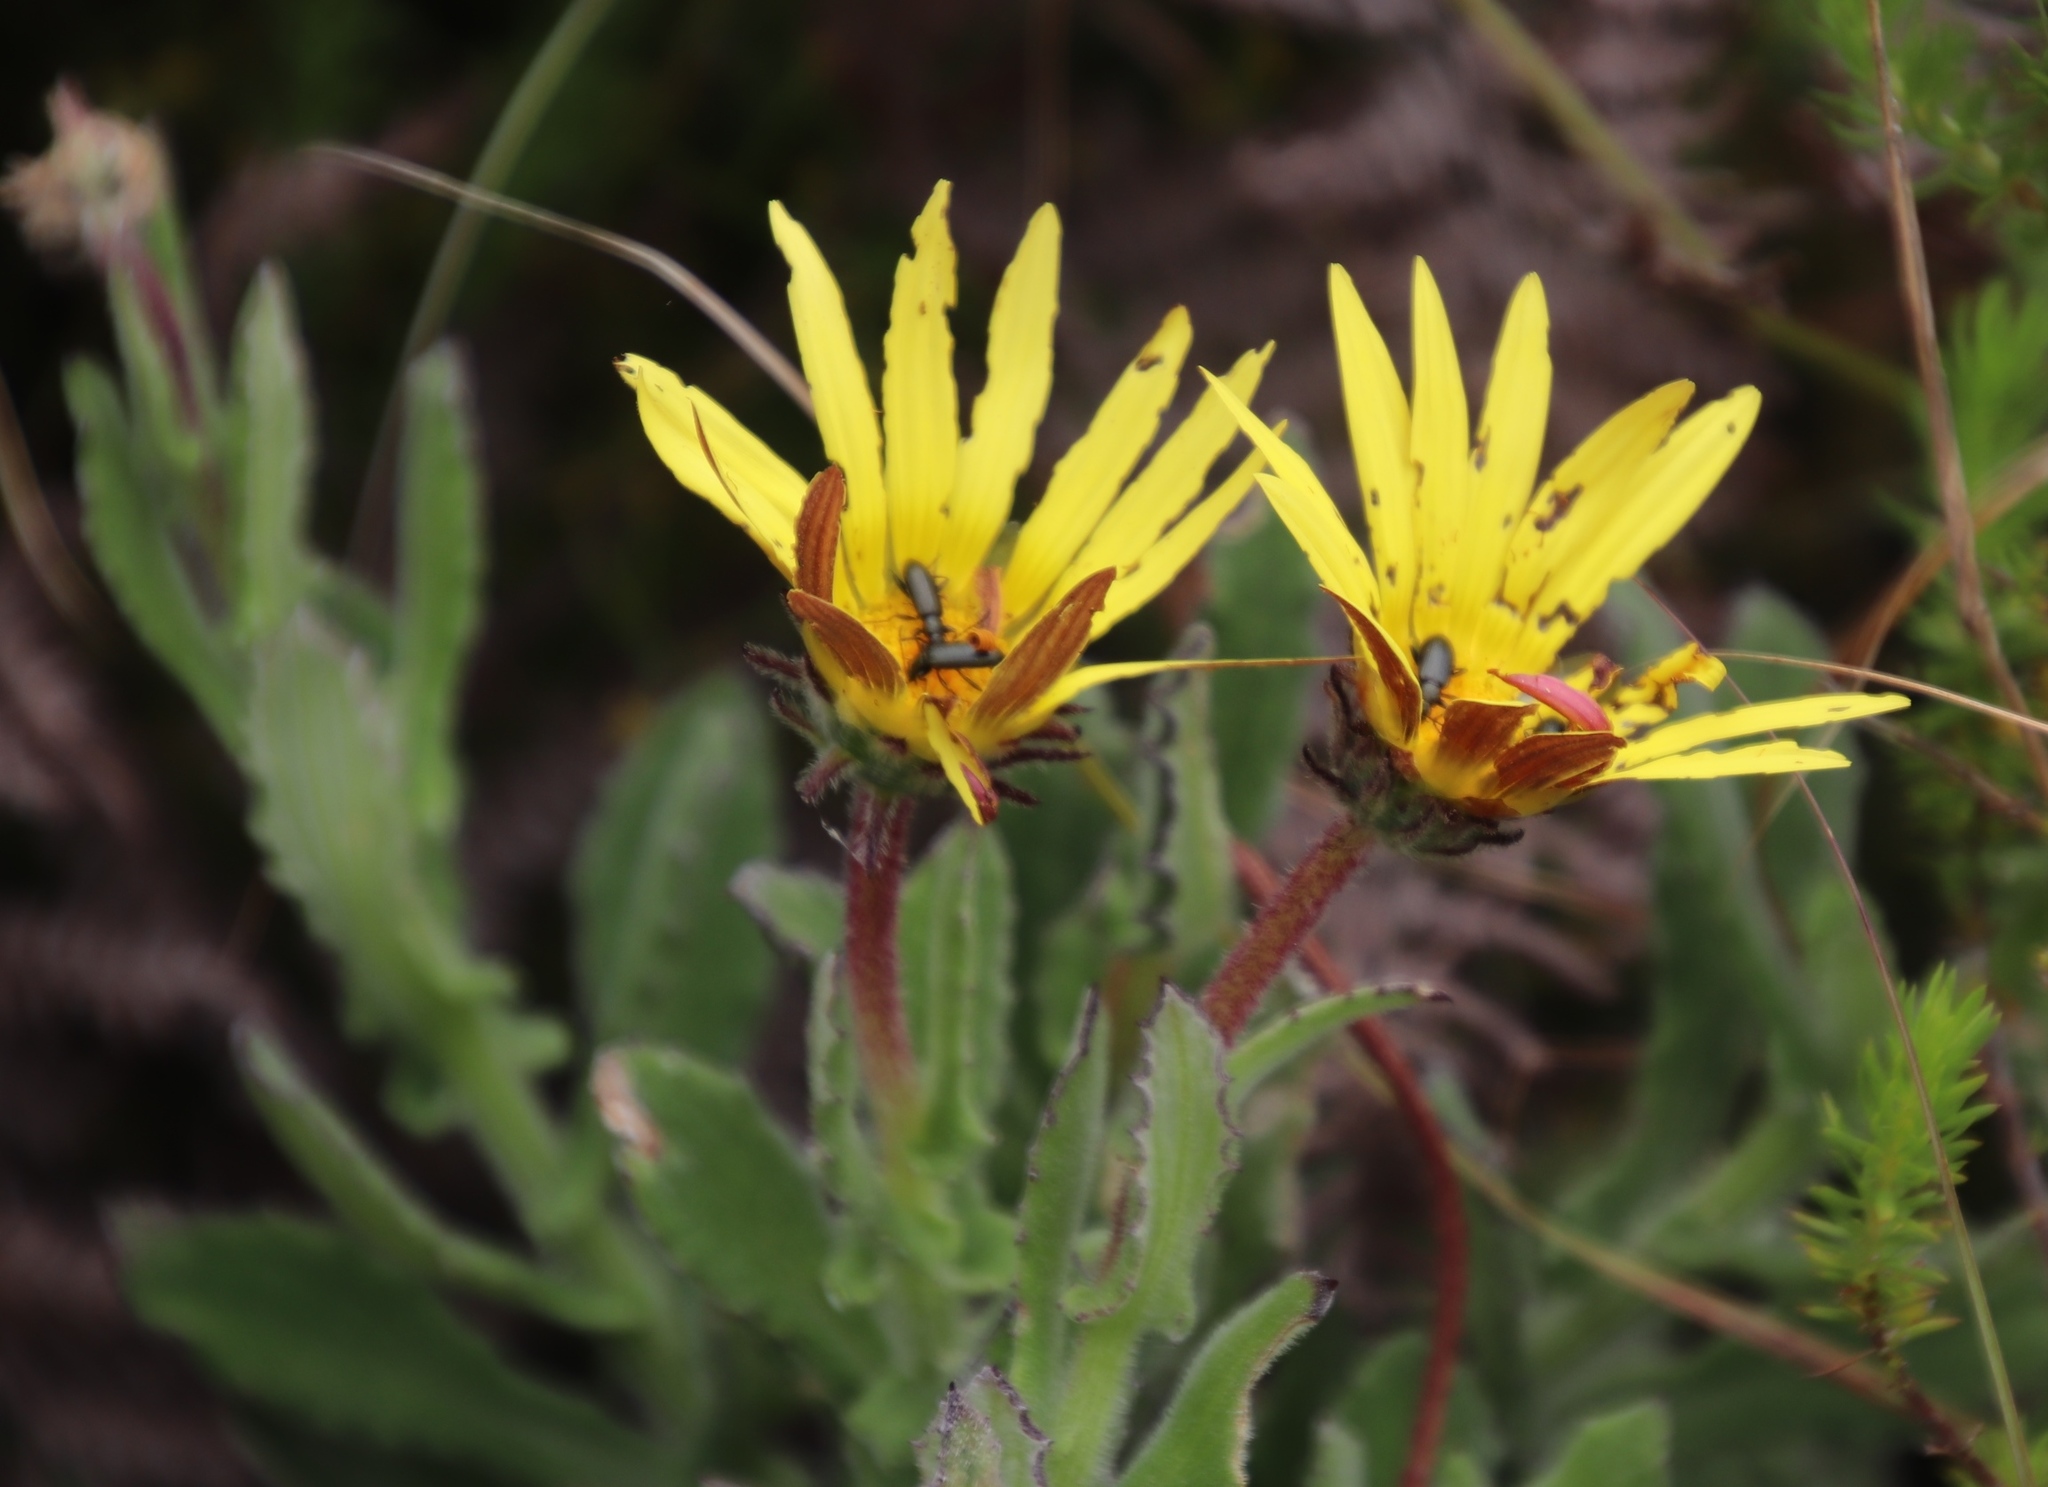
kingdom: Plantae
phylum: Tracheophyta
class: Magnoliopsida
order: Asterales
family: Asteraceae
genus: Arctotis
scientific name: Arctotis scabra
